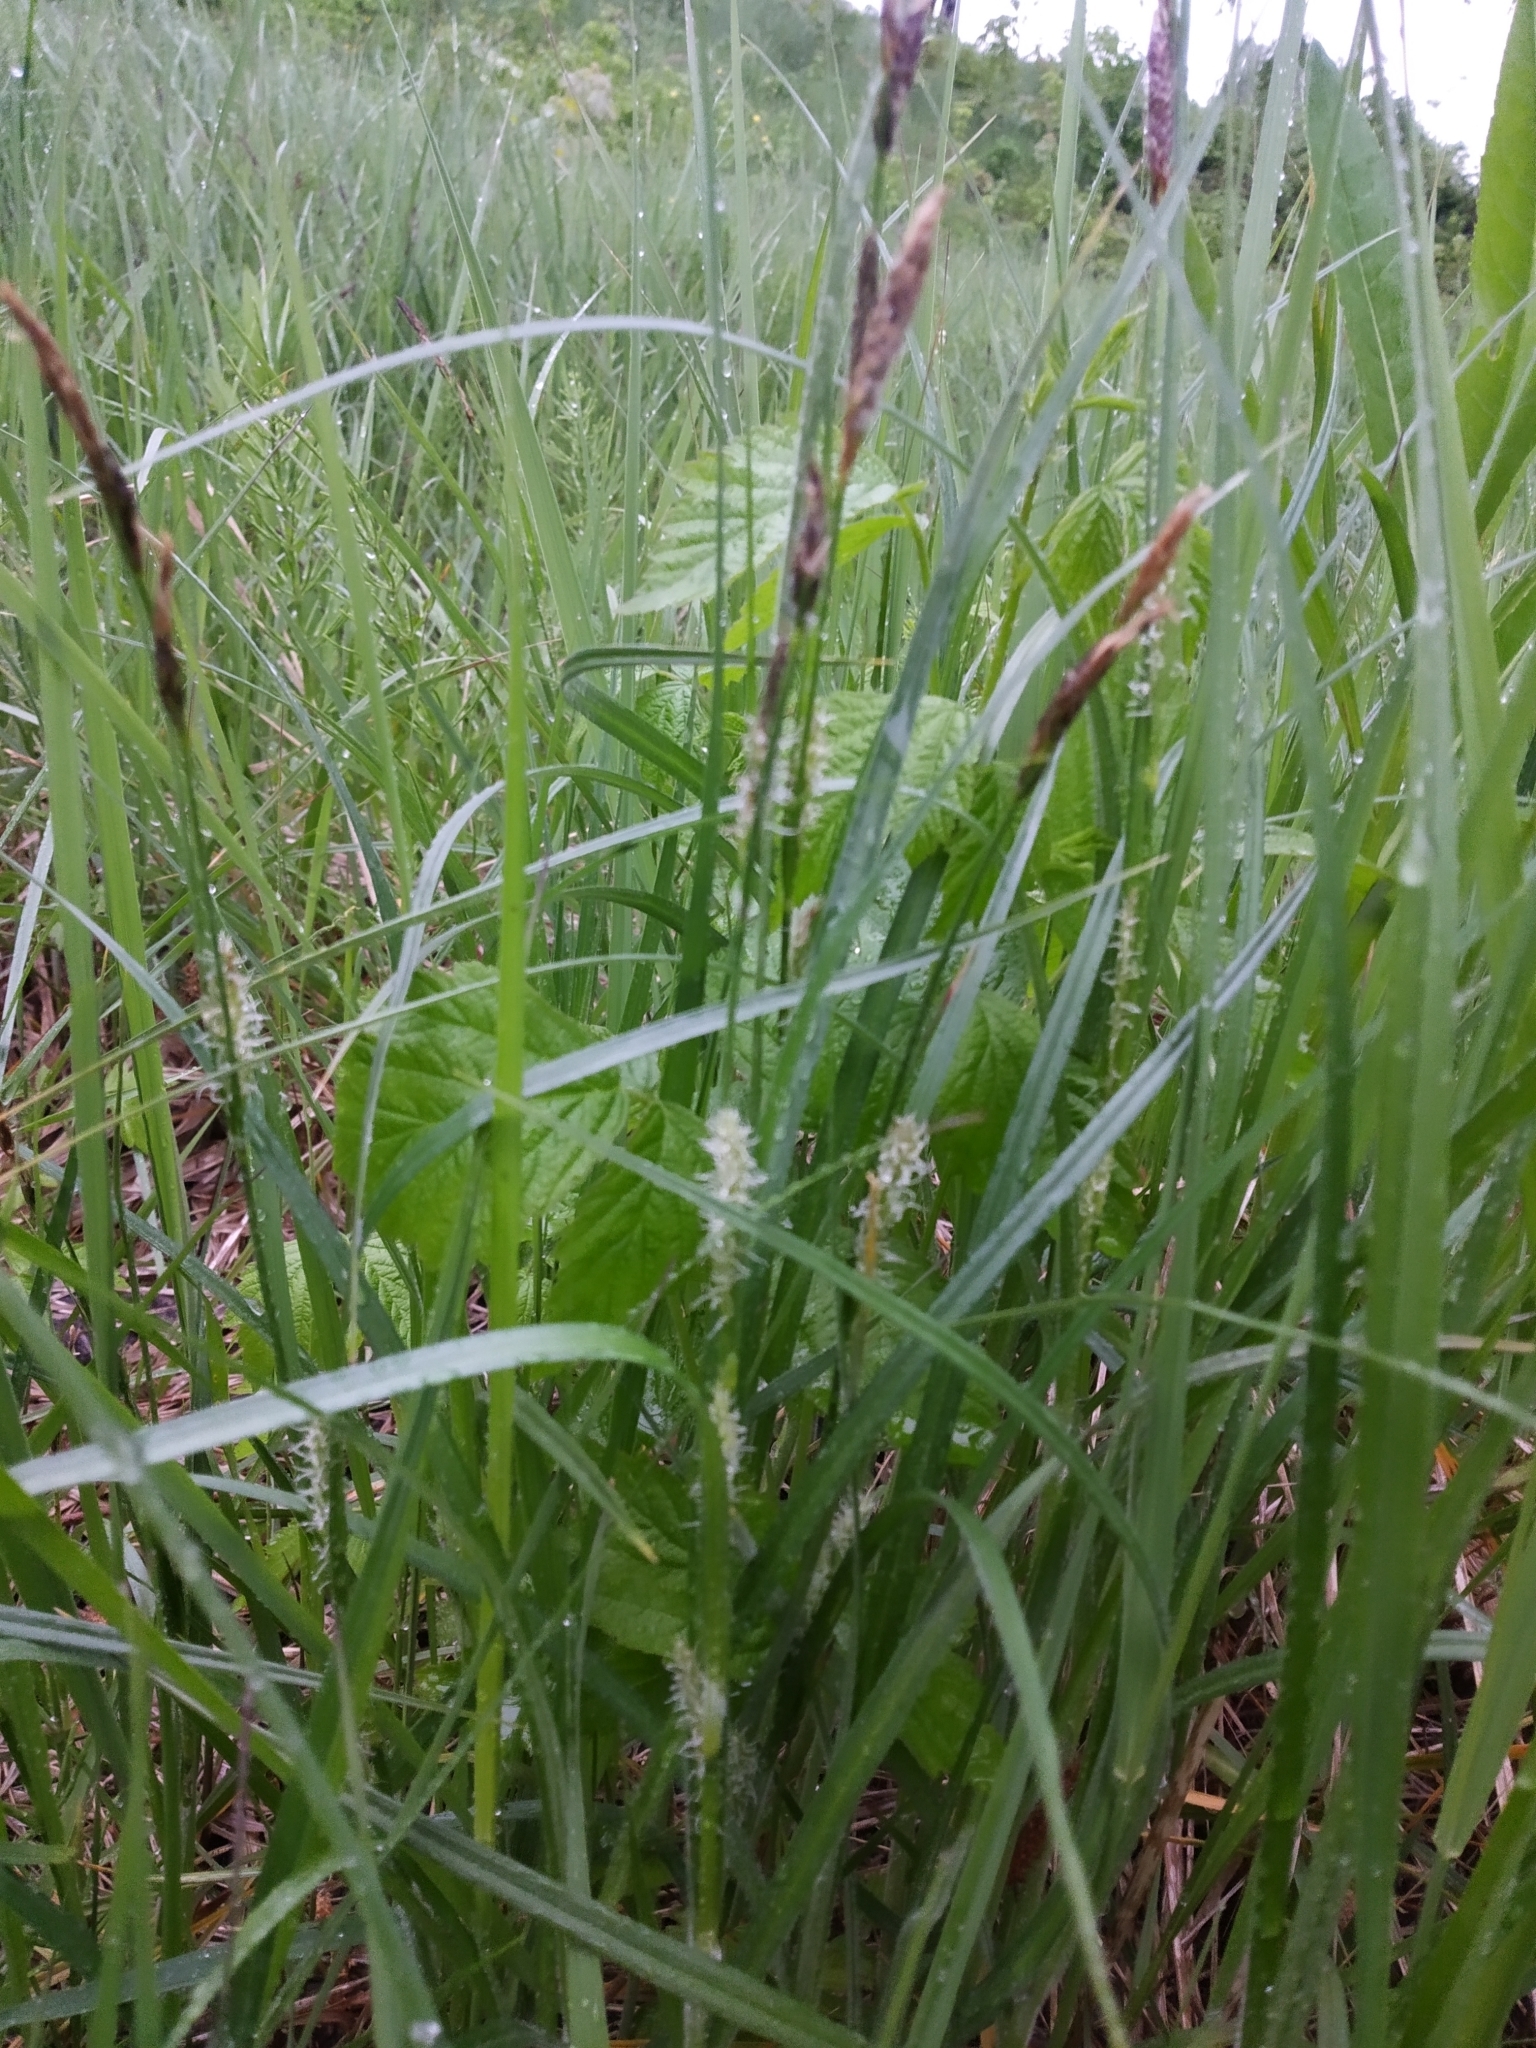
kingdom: Plantae
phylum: Tracheophyta
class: Liliopsida
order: Poales
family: Cyperaceae
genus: Carex
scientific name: Carex hirta
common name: Hairy sedge
